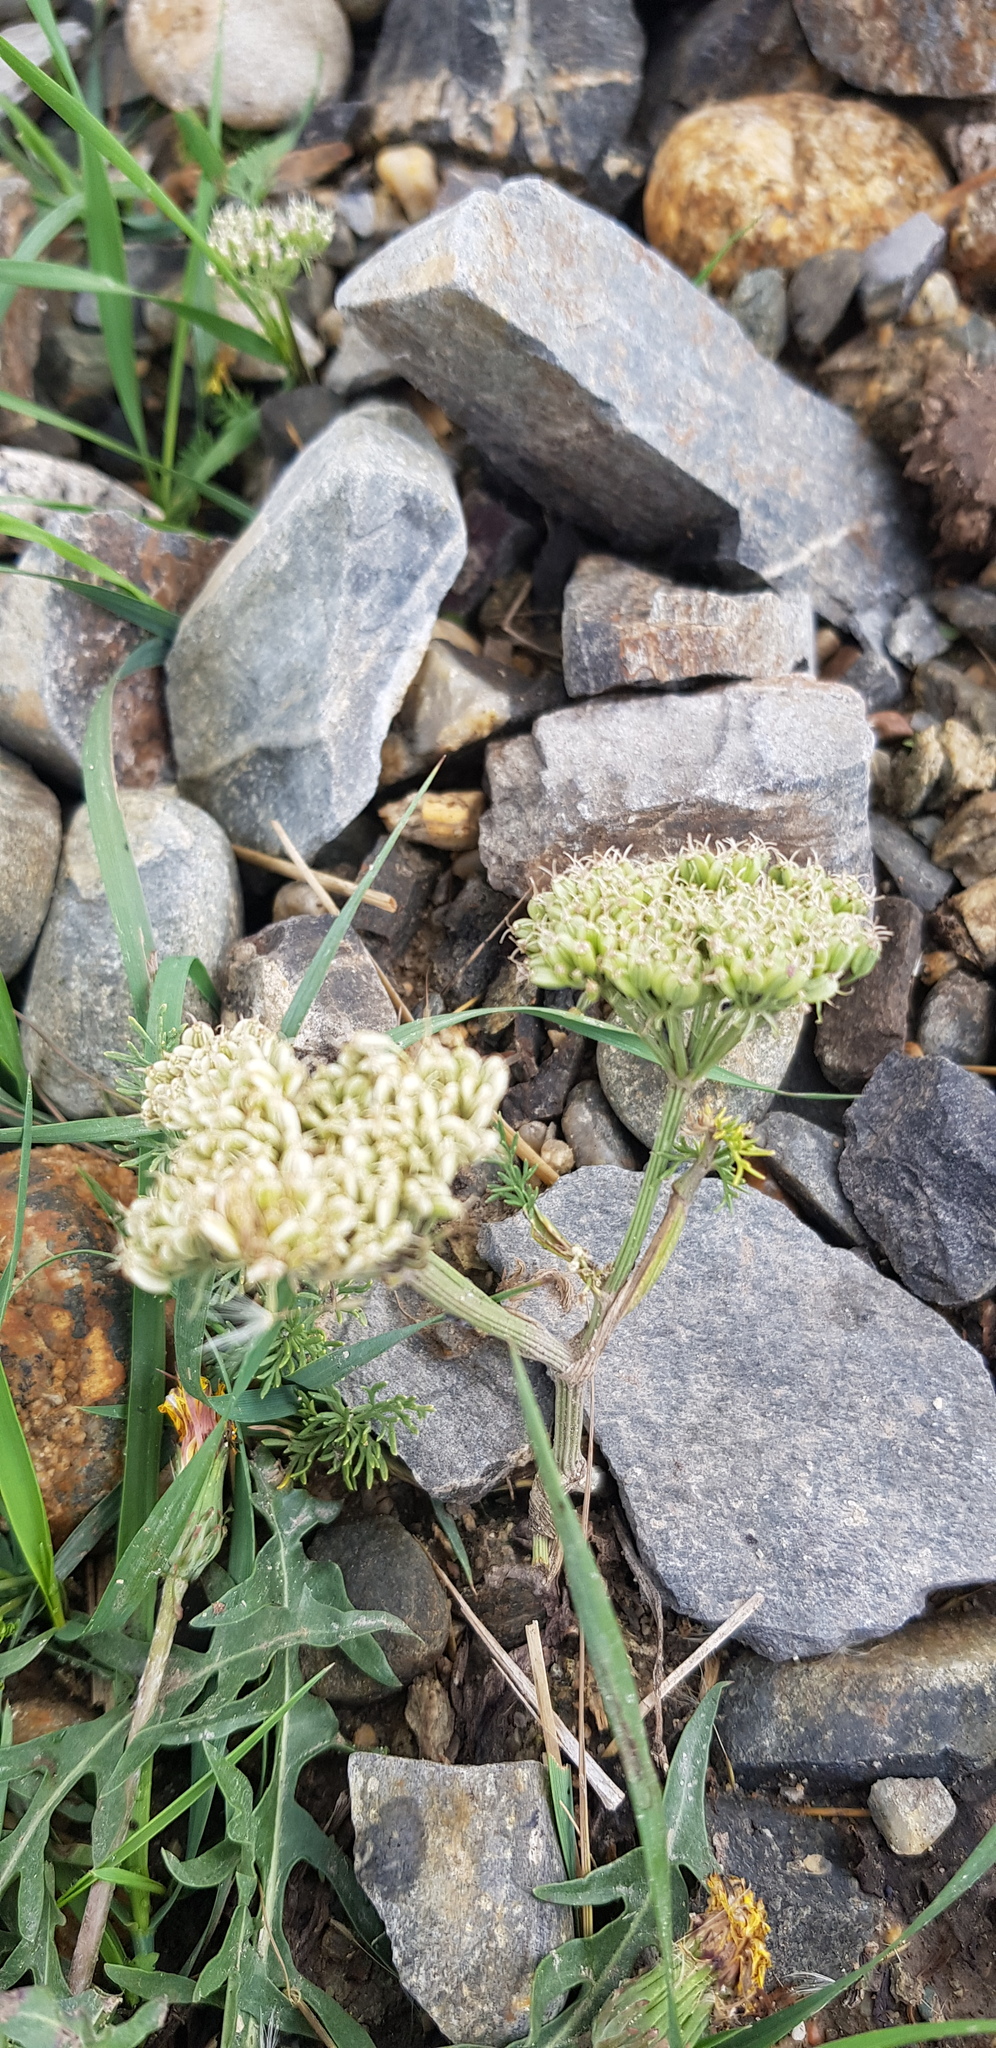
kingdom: Plantae
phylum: Tracheophyta
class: Magnoliopsida
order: Apiales
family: Apiaceae
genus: Kitagawia
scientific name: Kitagawia baicalensis
